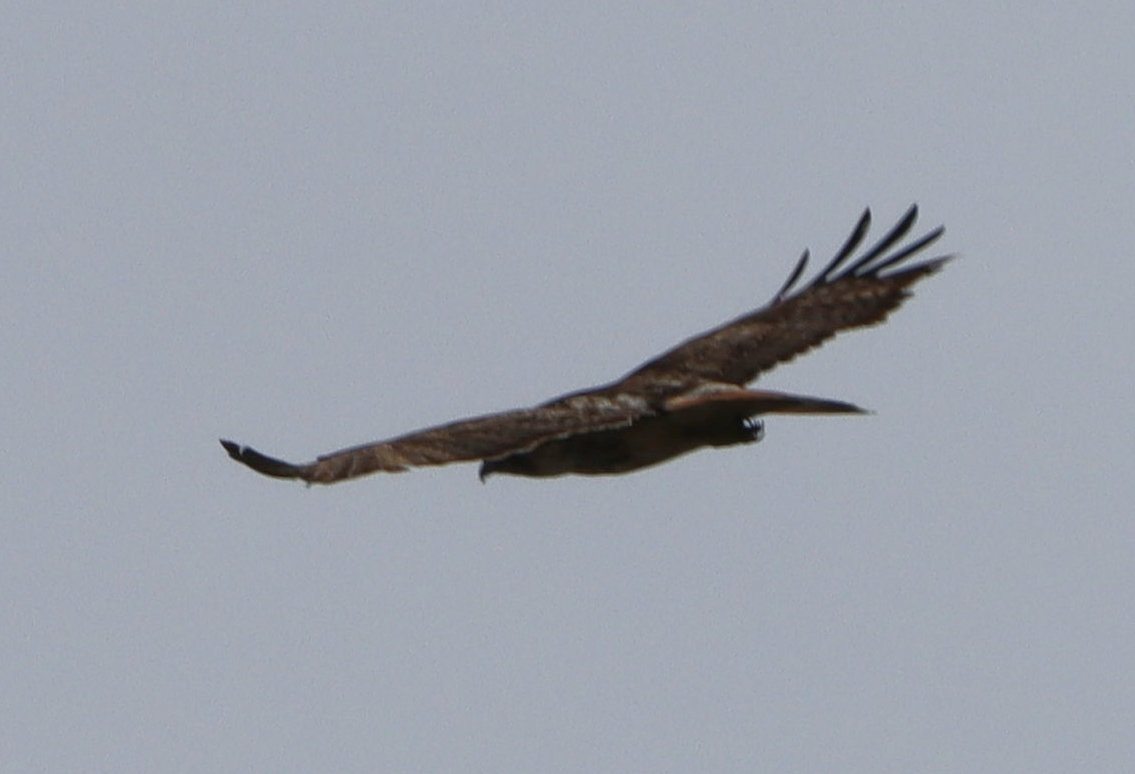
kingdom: Animalia
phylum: Chordata
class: Aves
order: Accipitriformes
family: Accipitridae
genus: Buteo
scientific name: Buteo jamaicensis
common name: Red-tailed hawk
